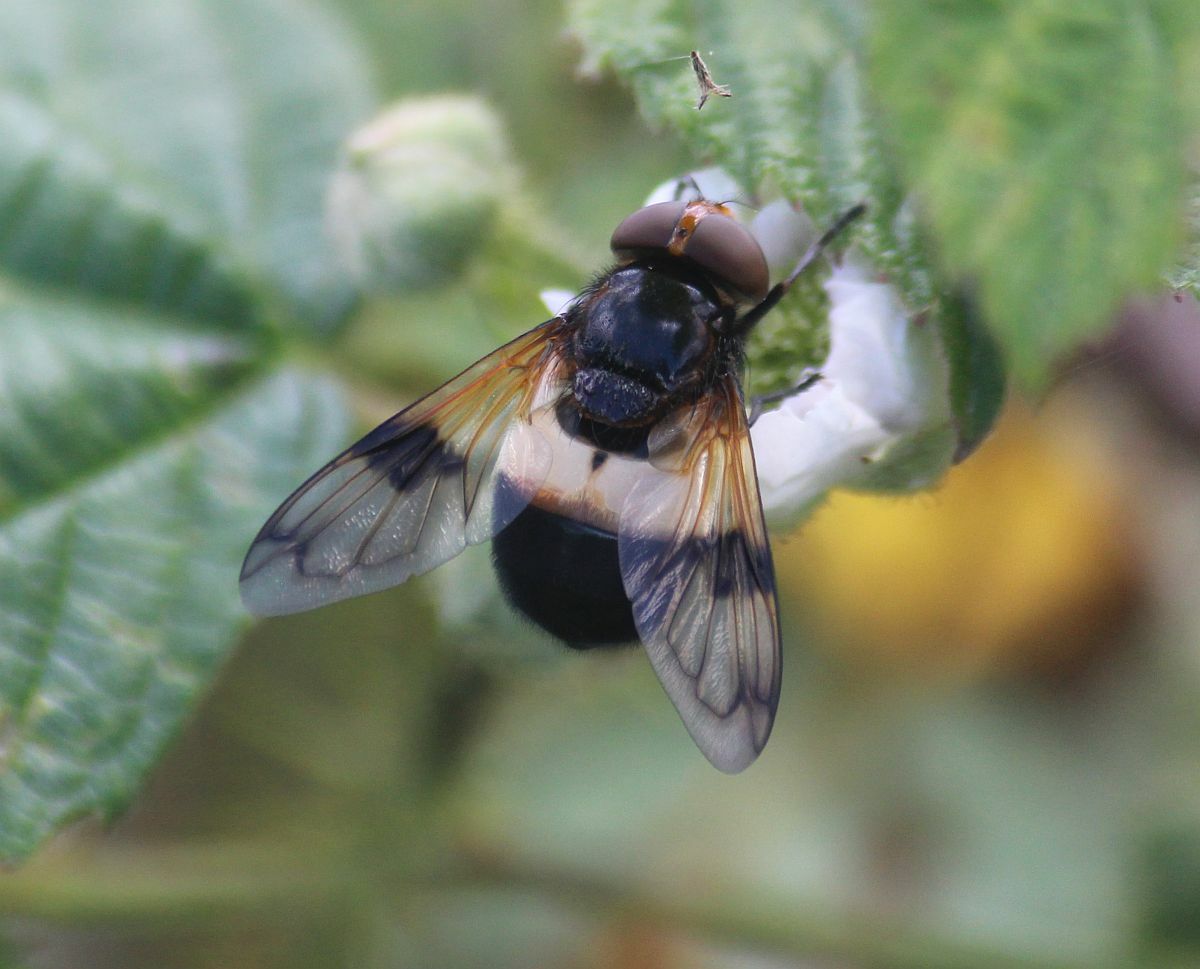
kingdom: Animalia
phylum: Arthropoda
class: Insecta
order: Diptera
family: Syrphidae
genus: Volucella
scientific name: Volucella pellucens
